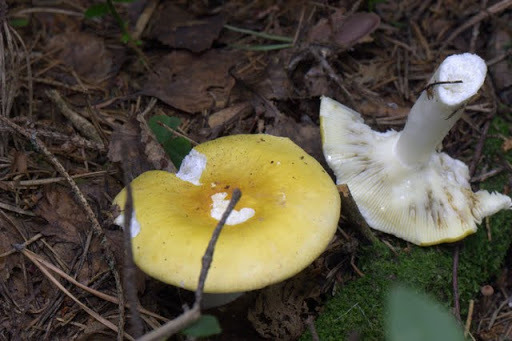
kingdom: Fungi
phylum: Basidiomycota
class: Agaricomycetes
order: Russulales
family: Russulaceae
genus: Russula
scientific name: Russula claroflava
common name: The yellow swamp brittlegill
